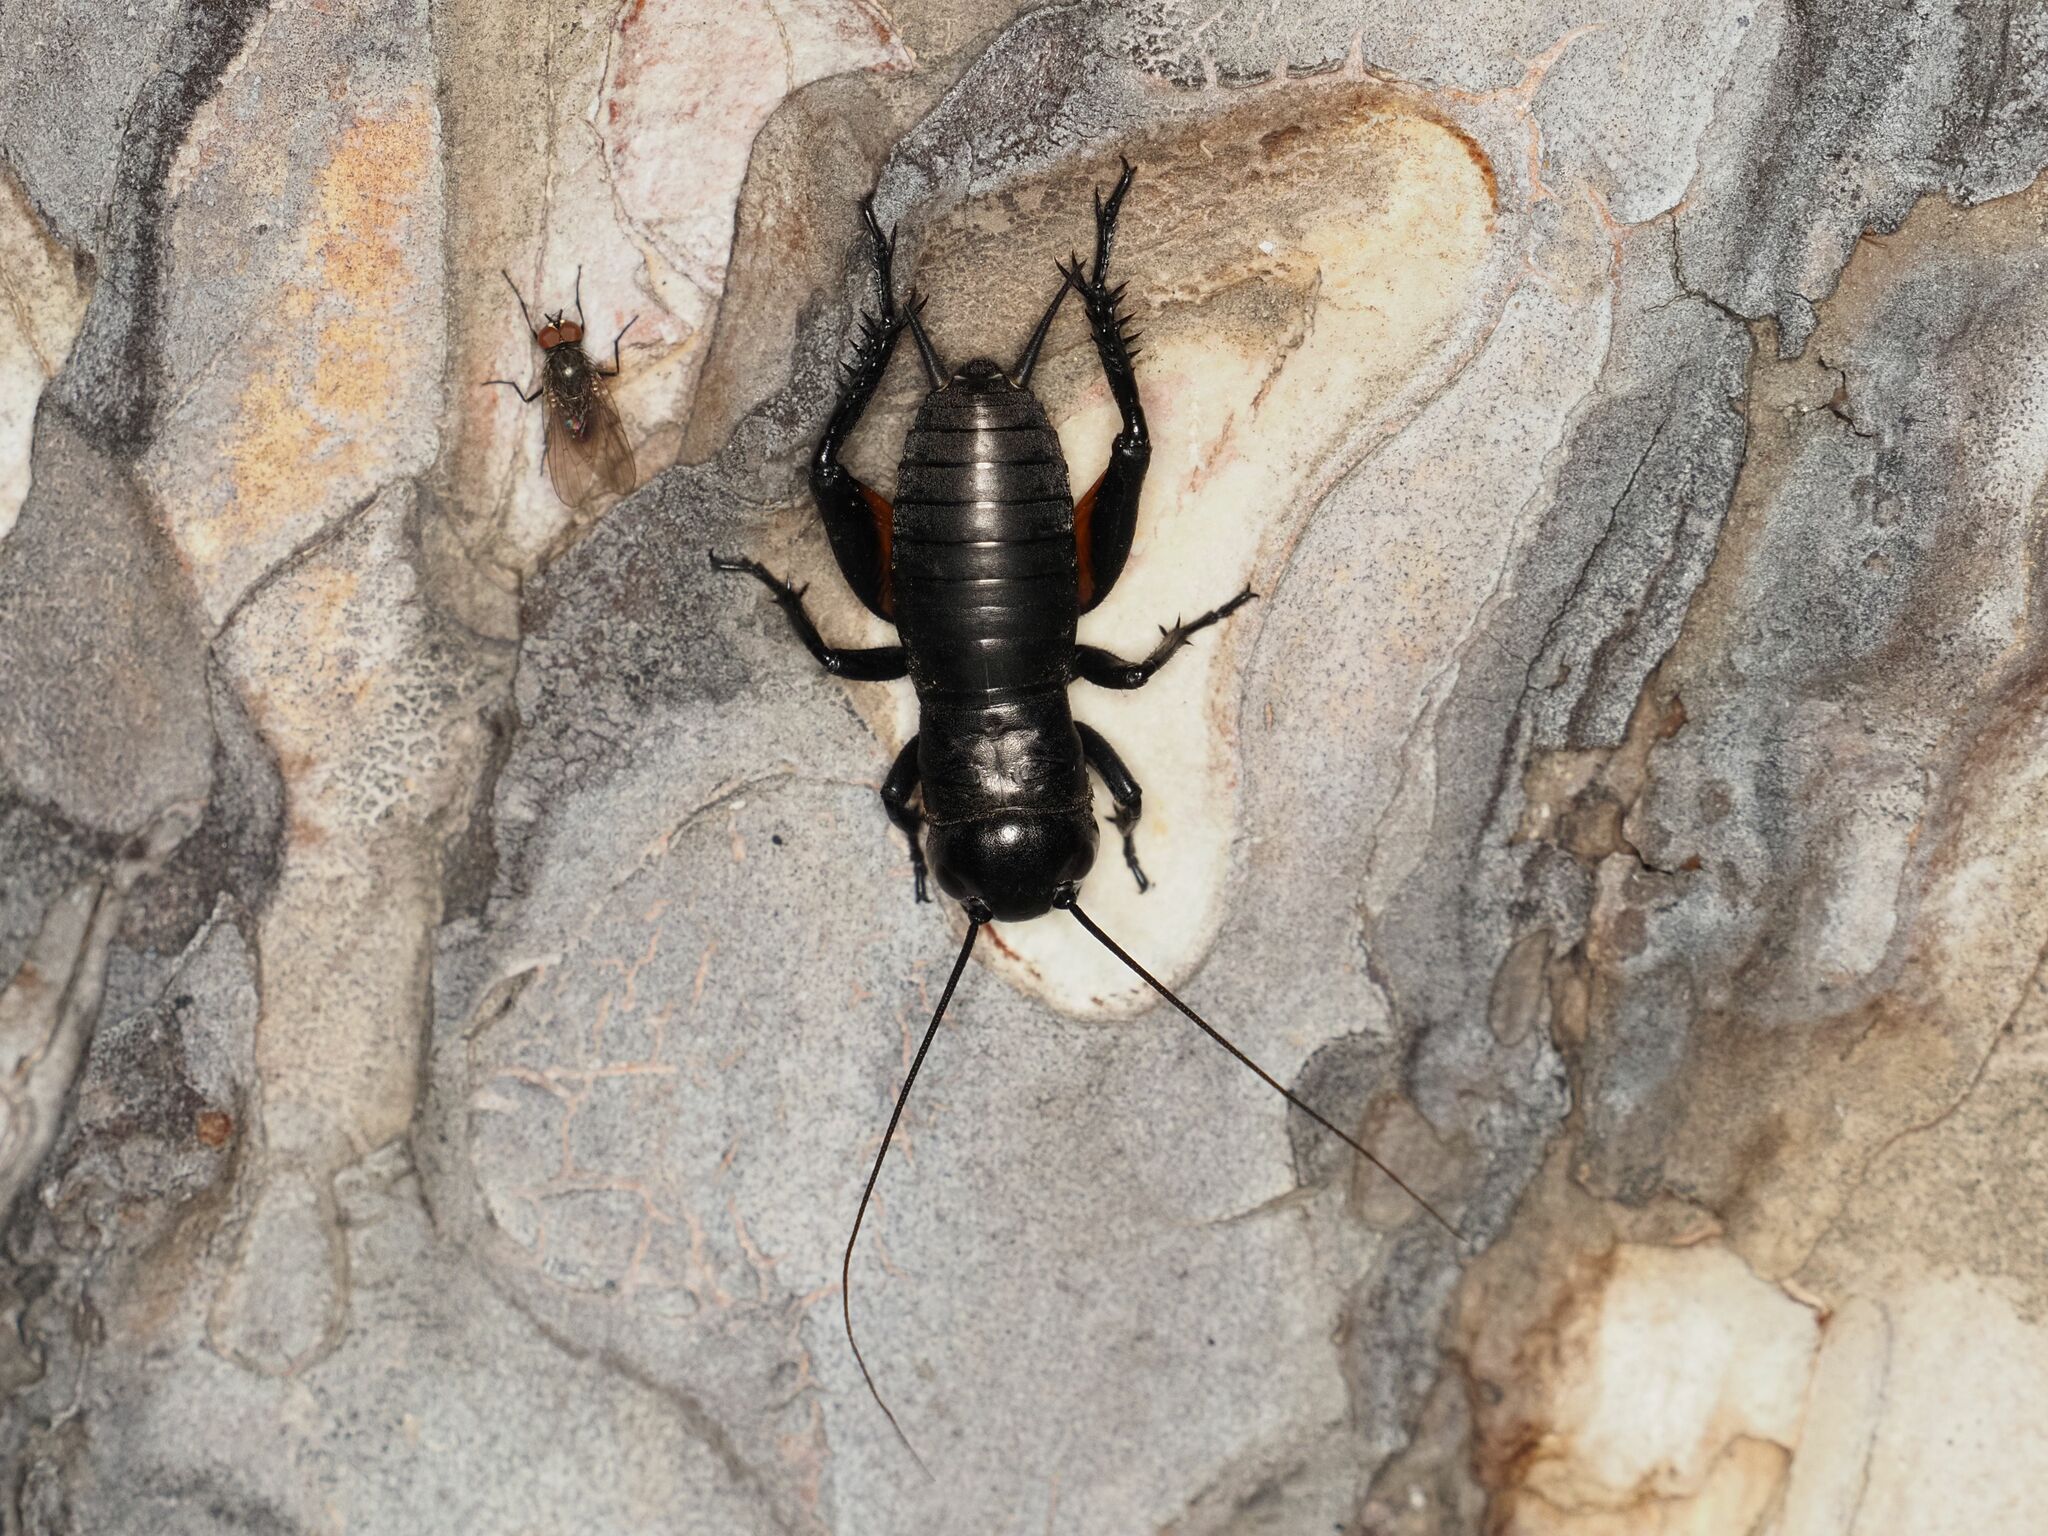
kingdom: Animalia
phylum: Arthropoda
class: Insecta
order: Orthoptera
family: Gryllidae
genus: Gryllus
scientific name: Gryllus campestris
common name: Field cricket
